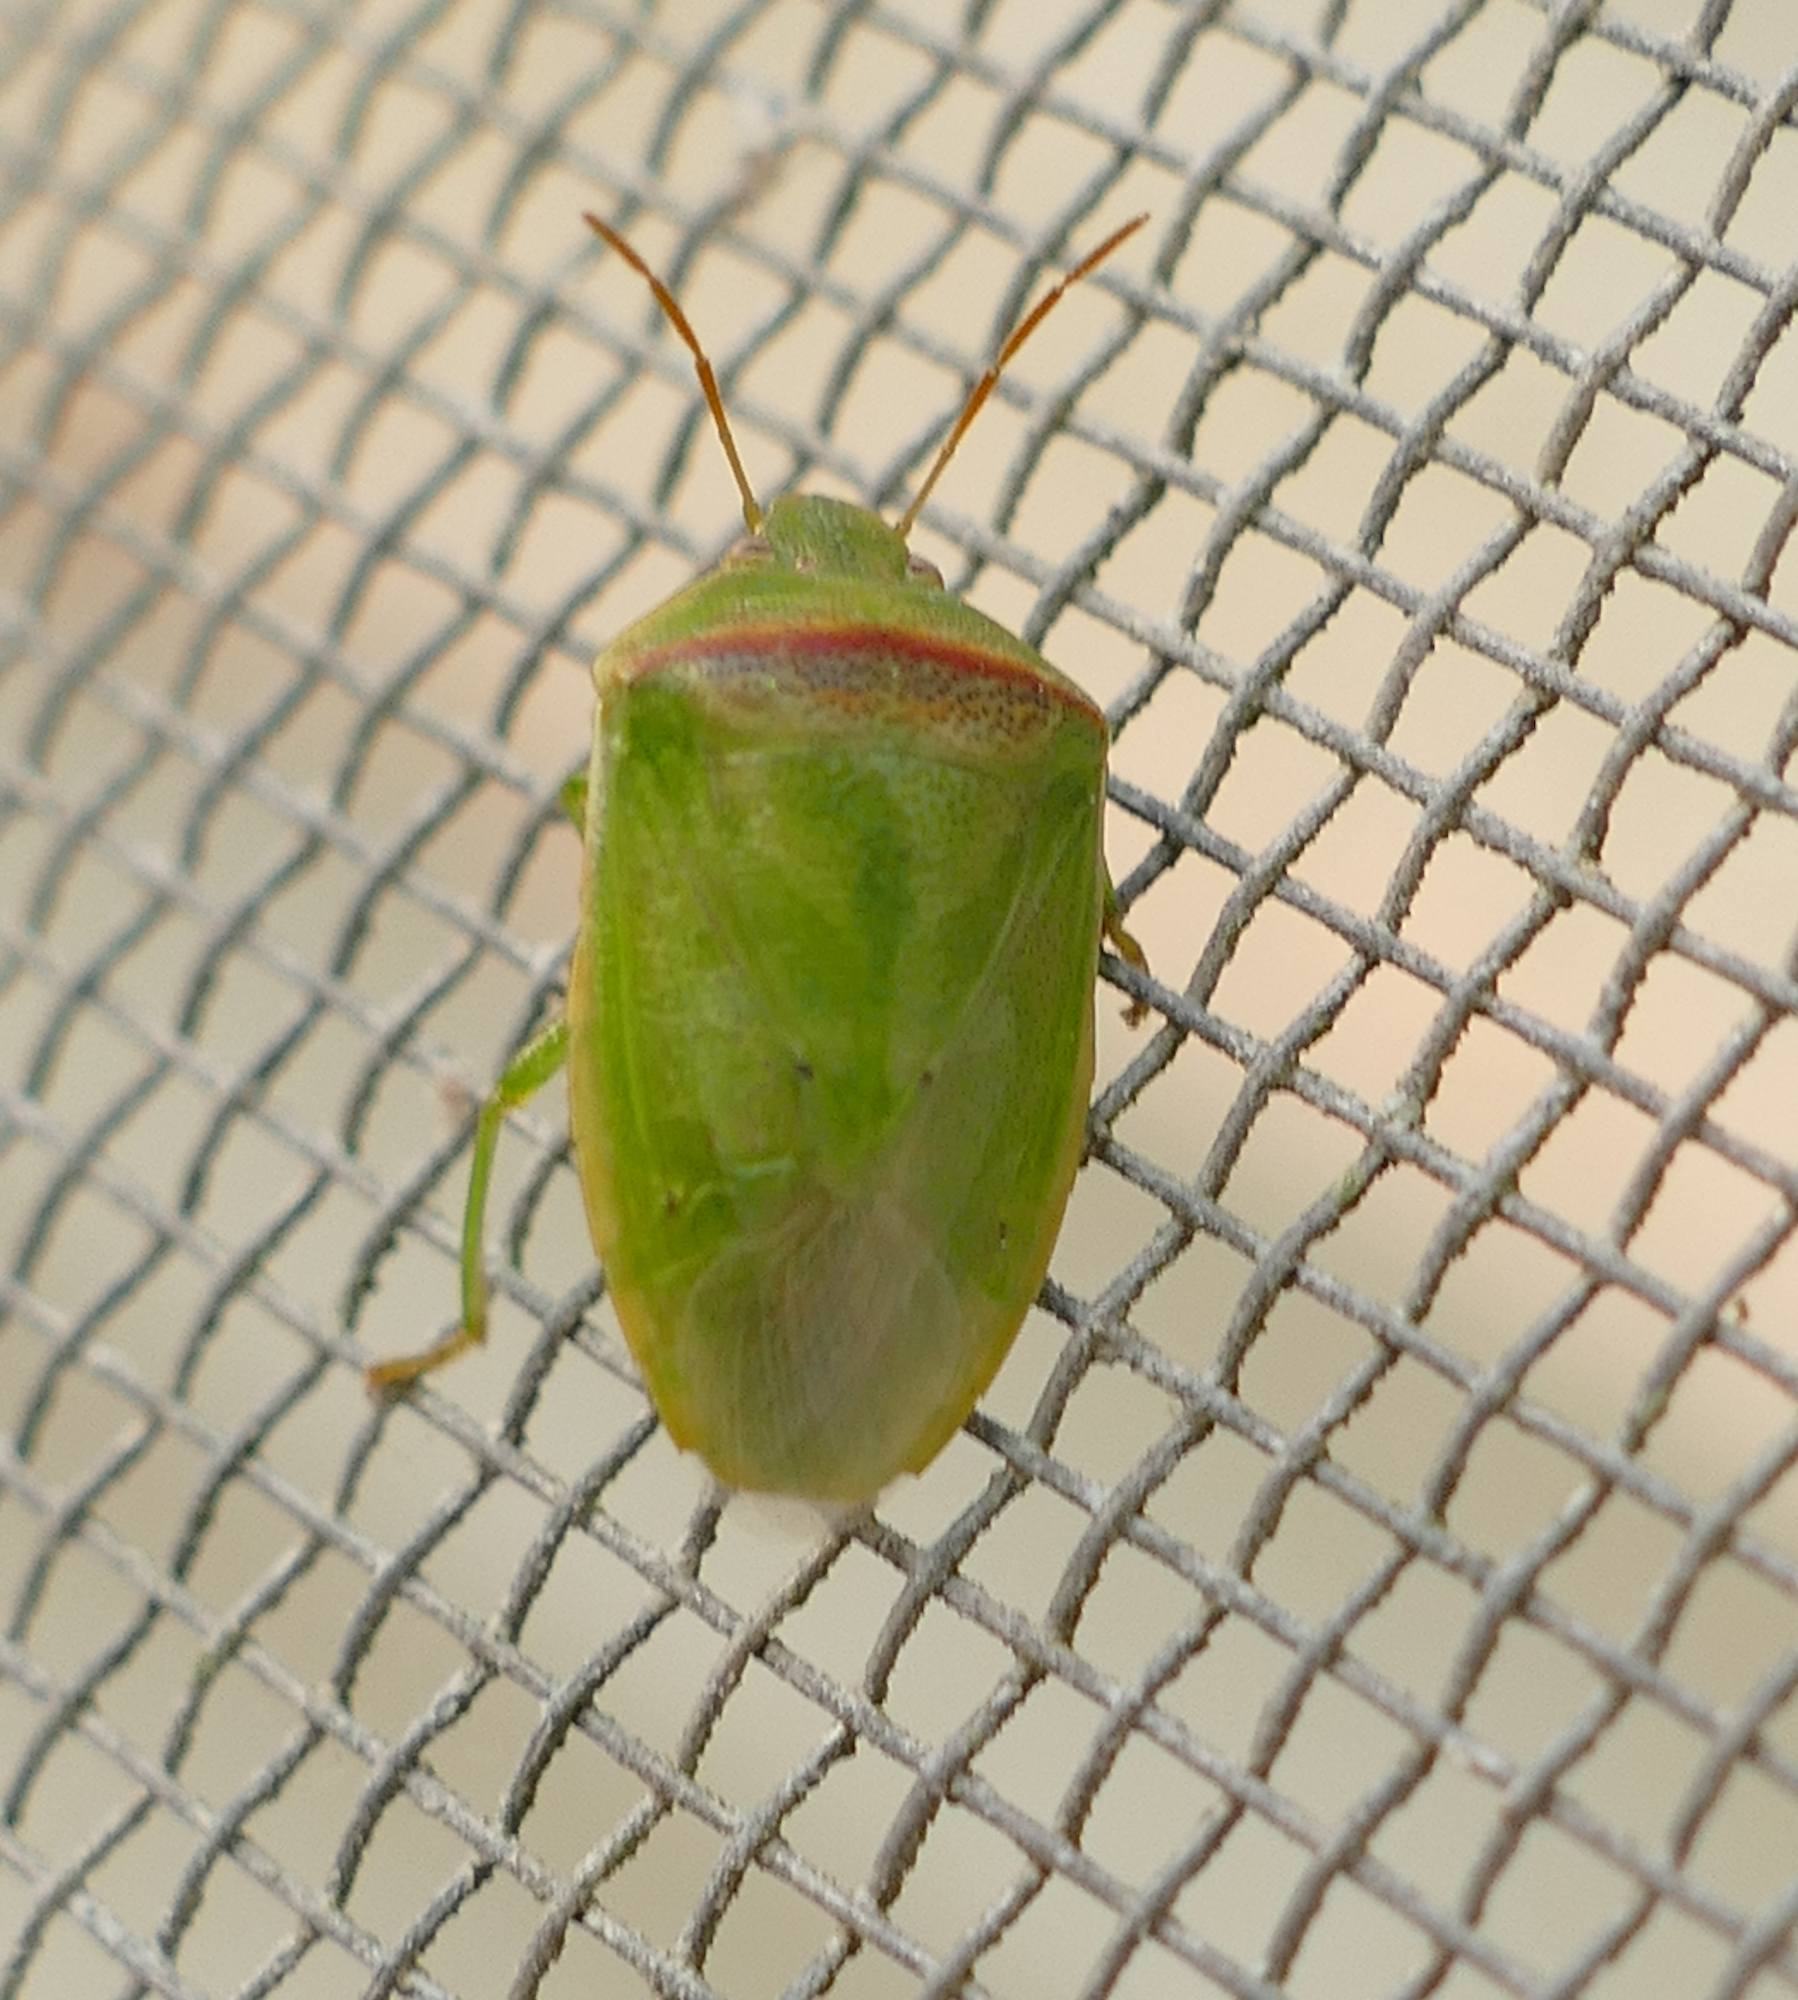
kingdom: Animalia
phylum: Arthropoda
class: Insecta
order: Hemiptera
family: Pentatomidae
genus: Piezodorus
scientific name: Piezodorus guildinii
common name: Redbanded stink bug
